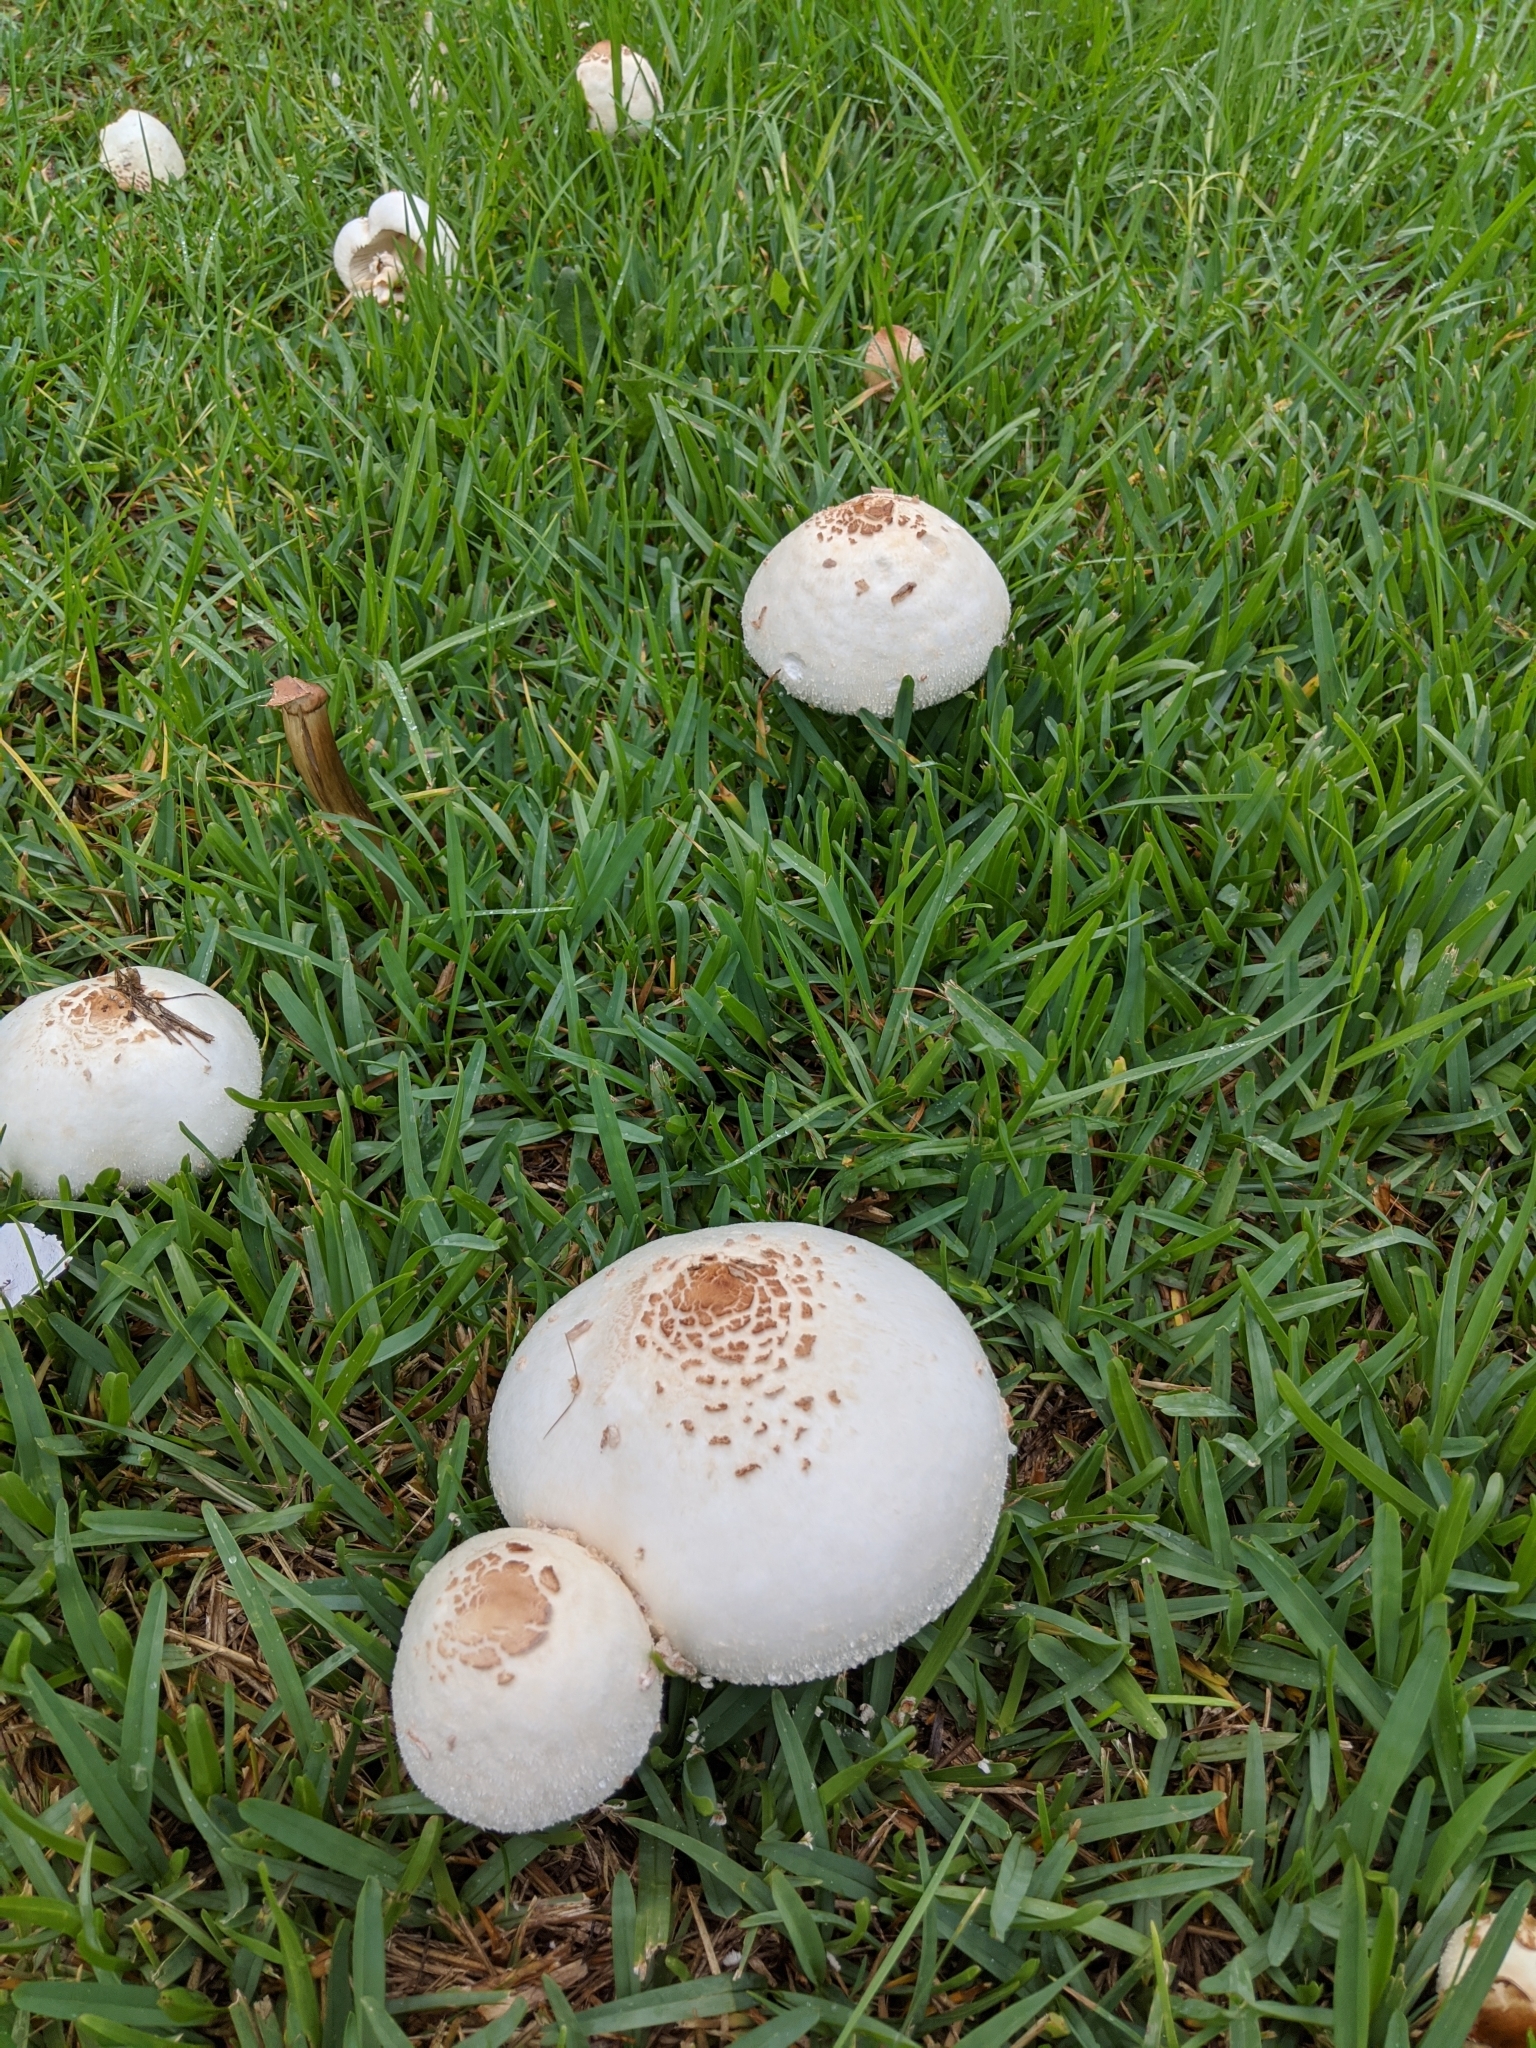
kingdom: Fungi
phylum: Basidiomycota
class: Agaricomycetes
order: Agaricales
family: Agaricaceae
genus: Chlorophyllum
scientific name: Chlorophyllum molybdites
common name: False parasol
